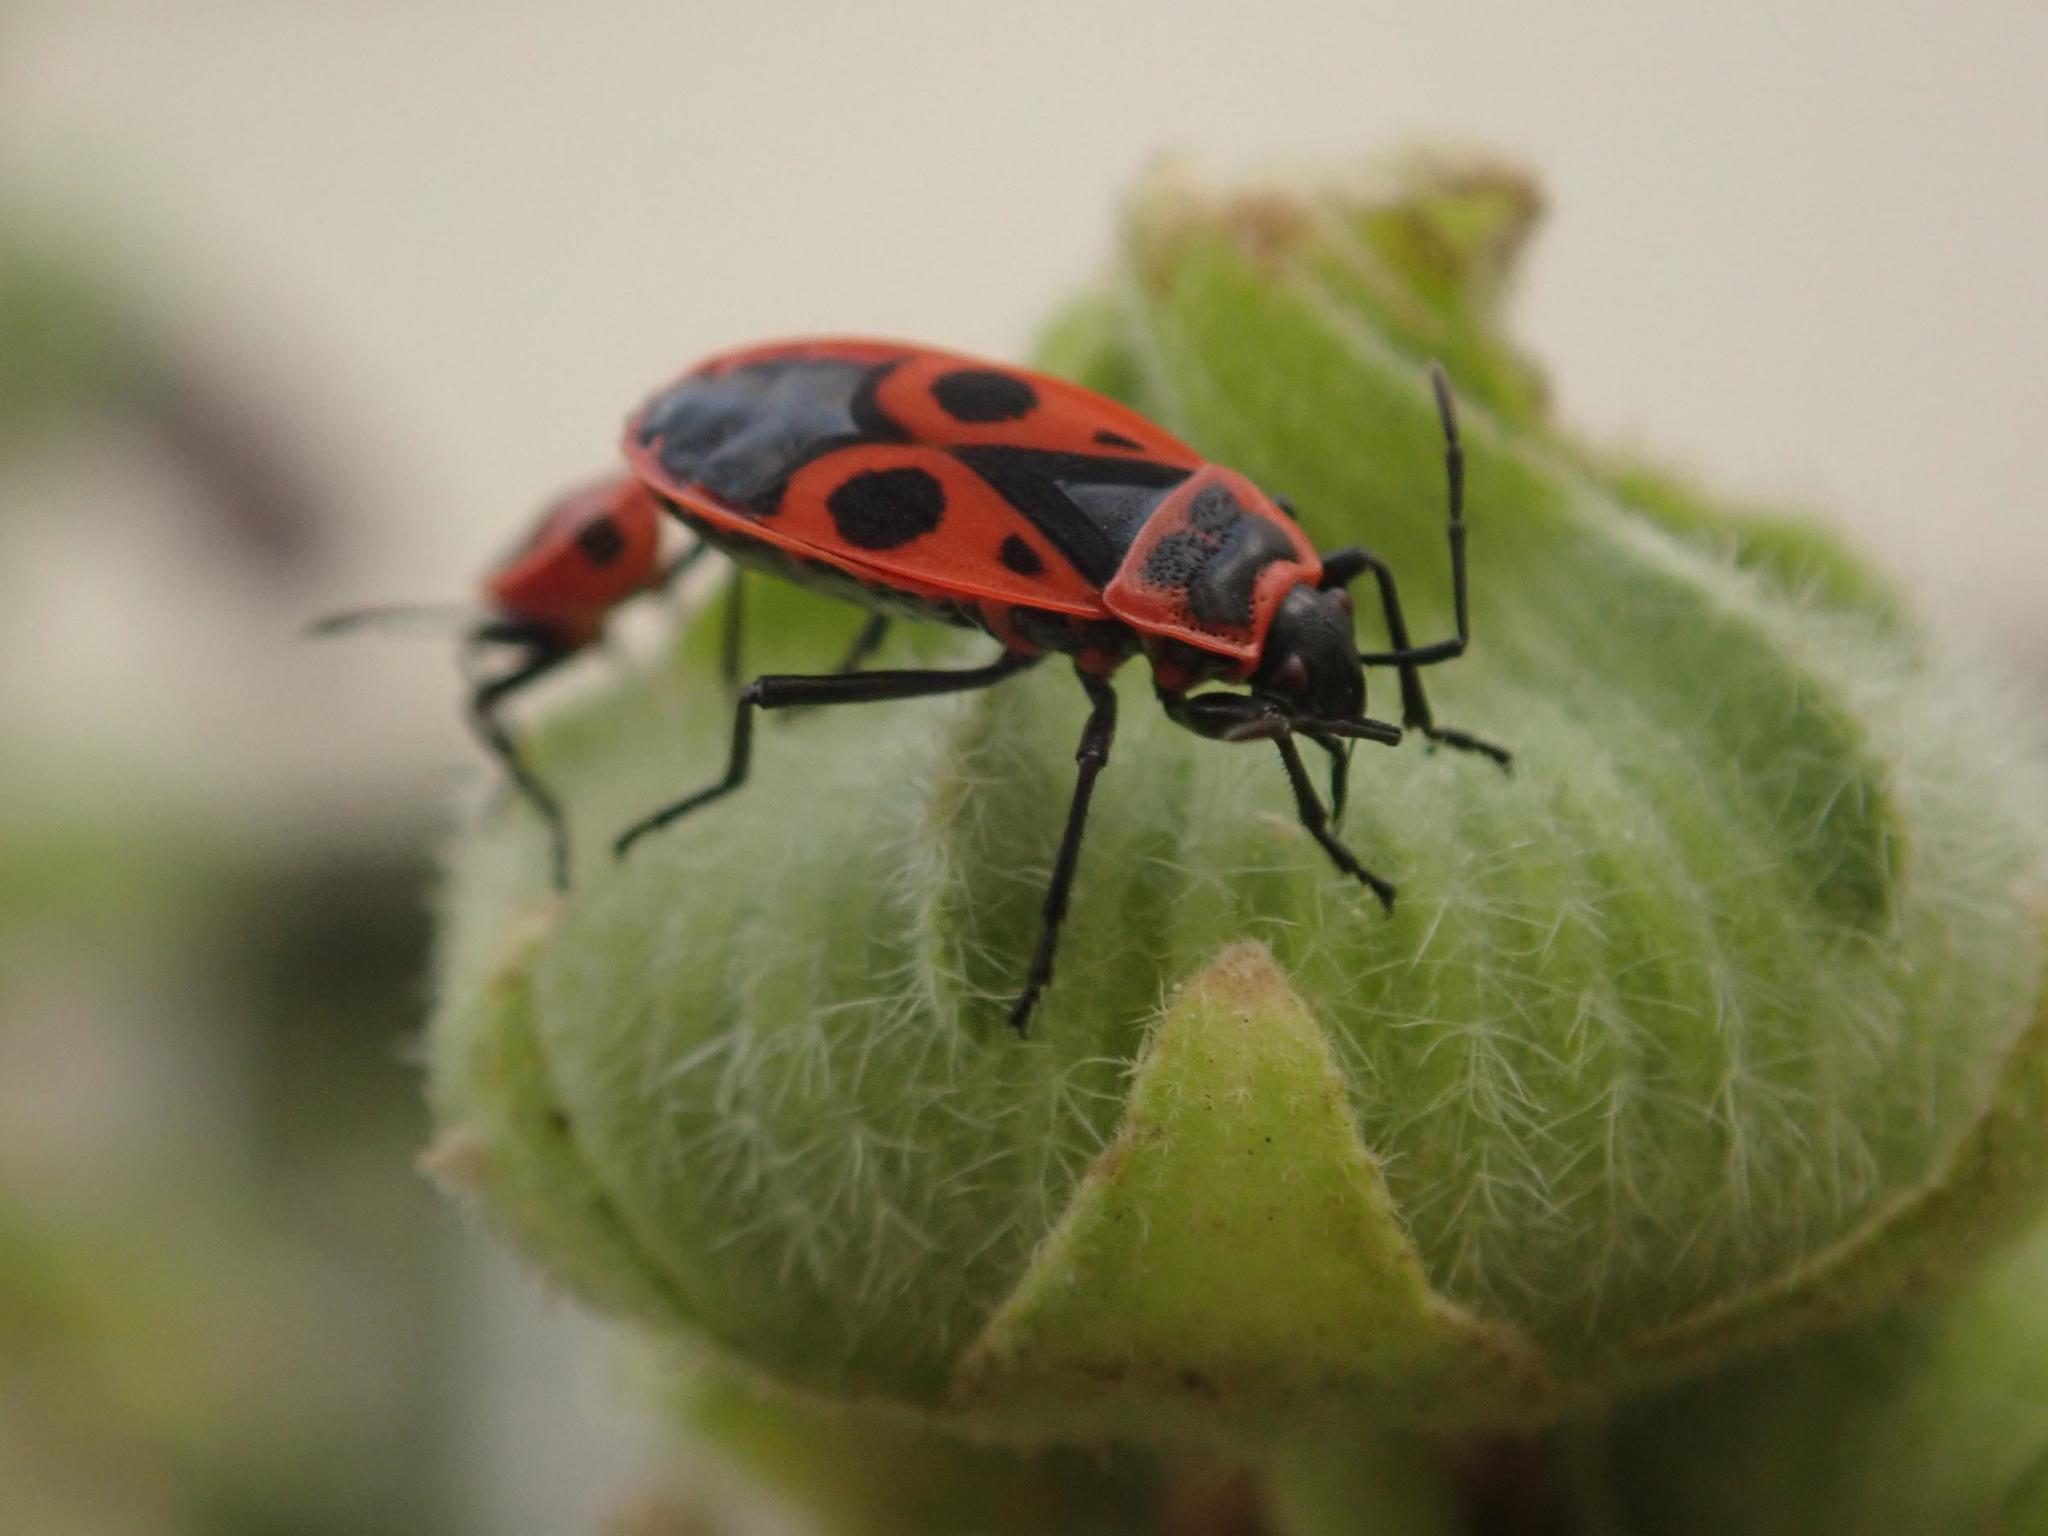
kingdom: Animalia
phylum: Arthropoda
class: Insecta
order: Hemiptera
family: Pyrrhocoridae
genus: Pyrrhocoris
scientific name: Pyrrhocoris apterus
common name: Firebug
